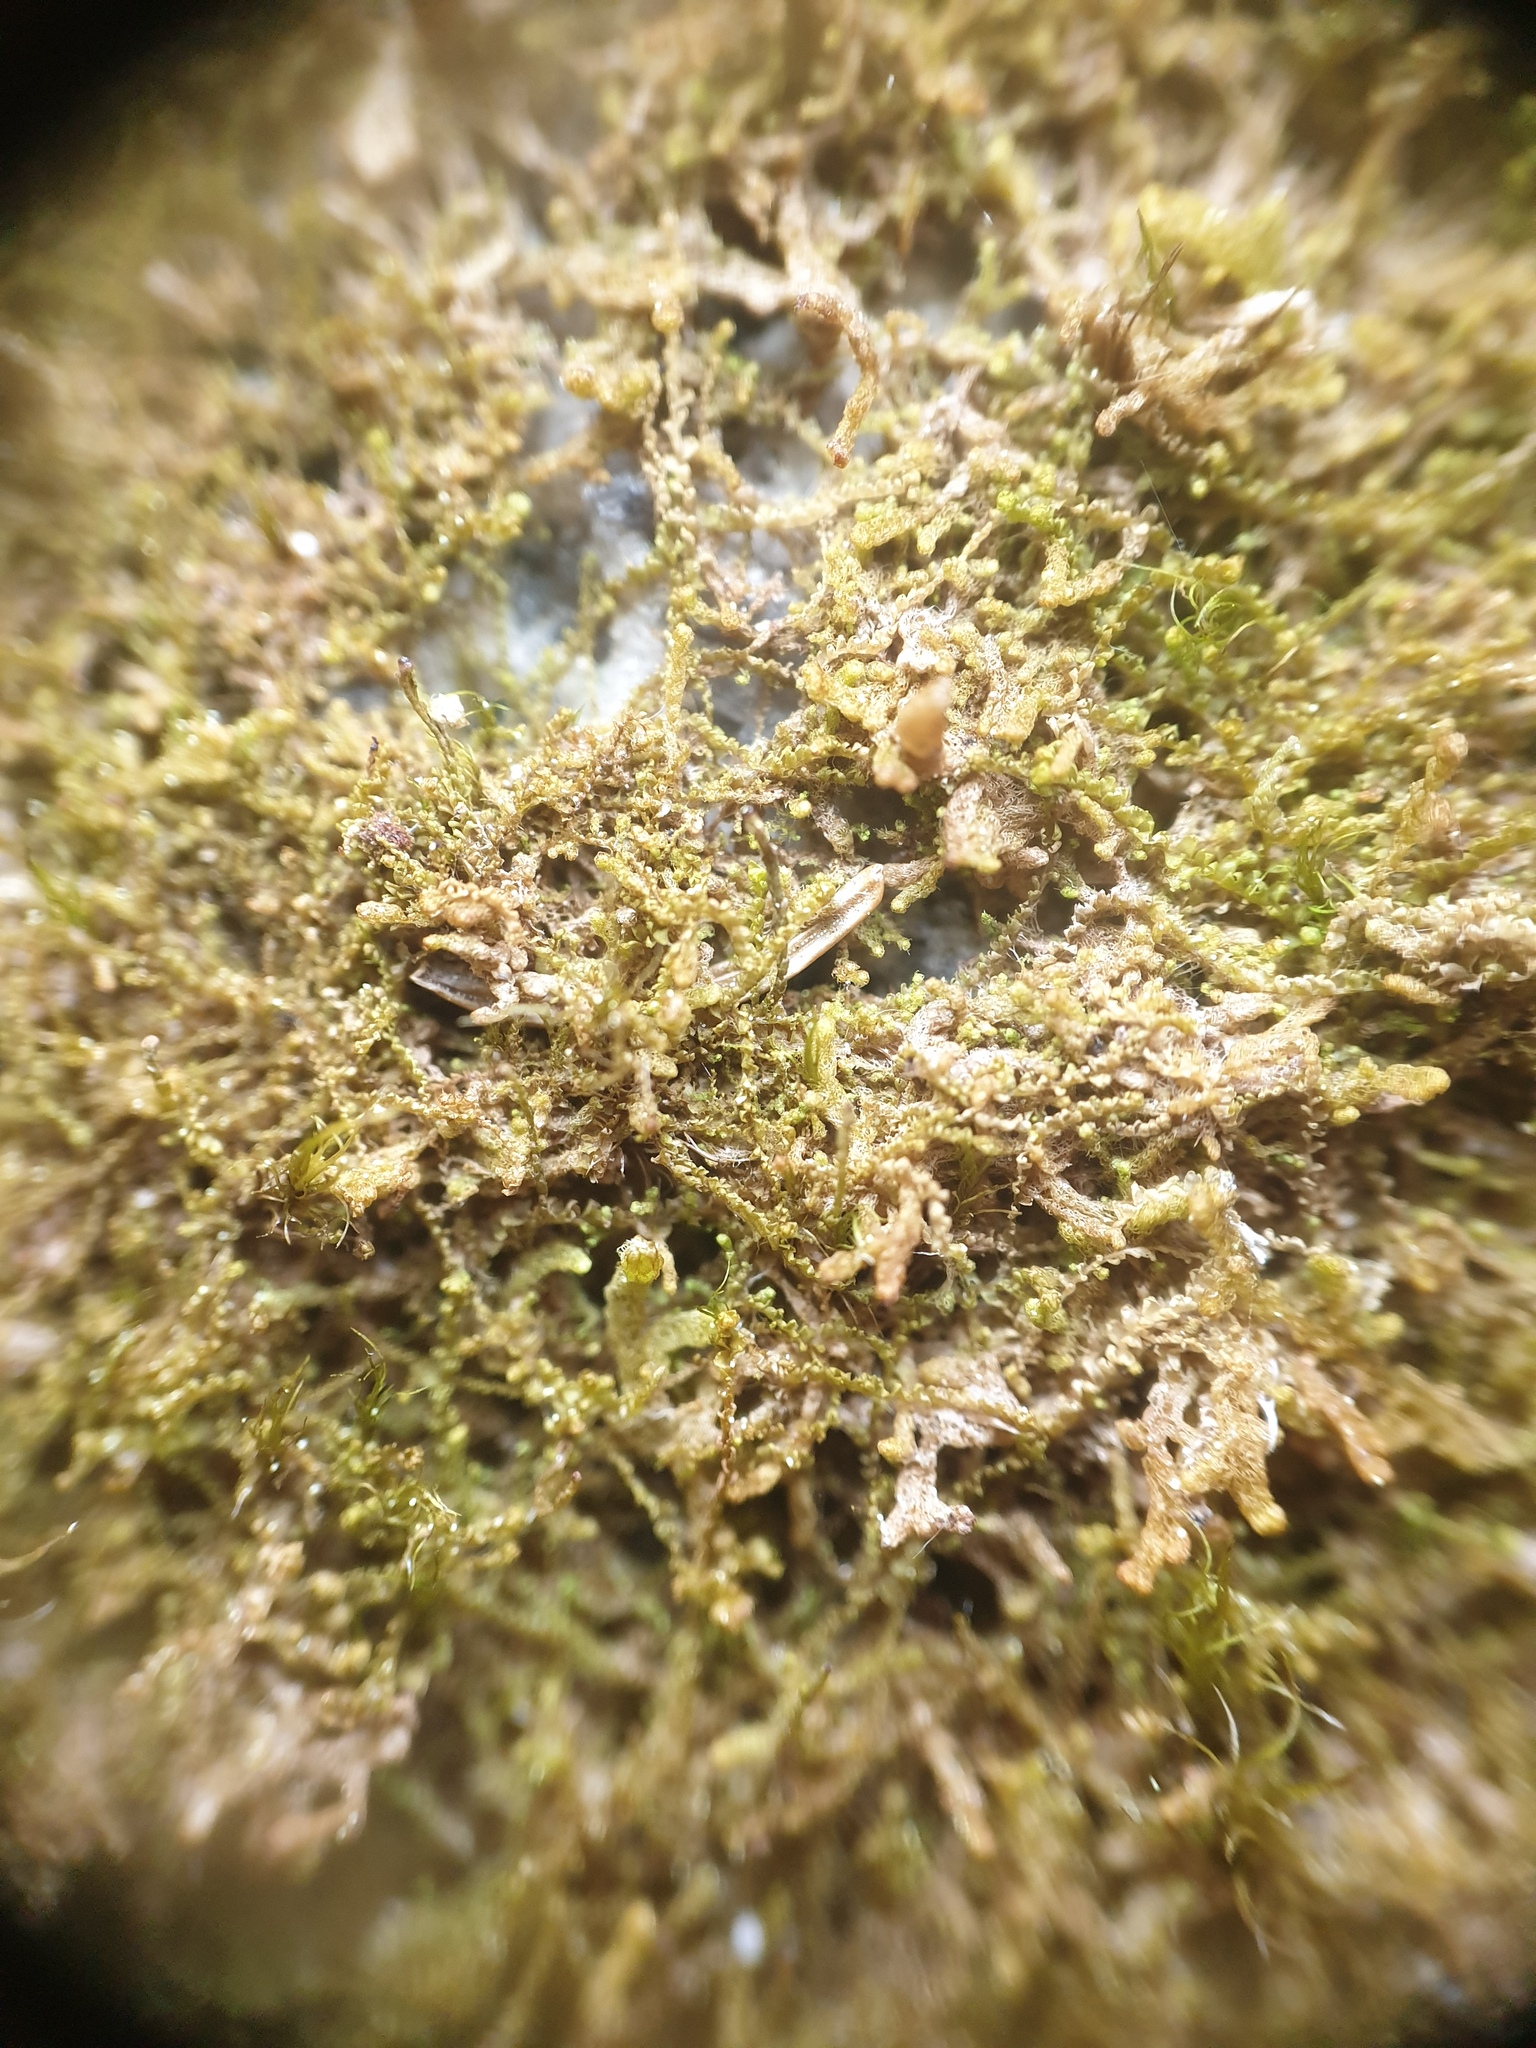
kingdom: Plantae
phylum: Marchantiophyta
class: Jungermanniopsida
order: Ptilidiales
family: Ptilidiaceae
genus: Ptilidium
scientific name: Ptilidium pulcherrimum
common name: Tree fringewort
